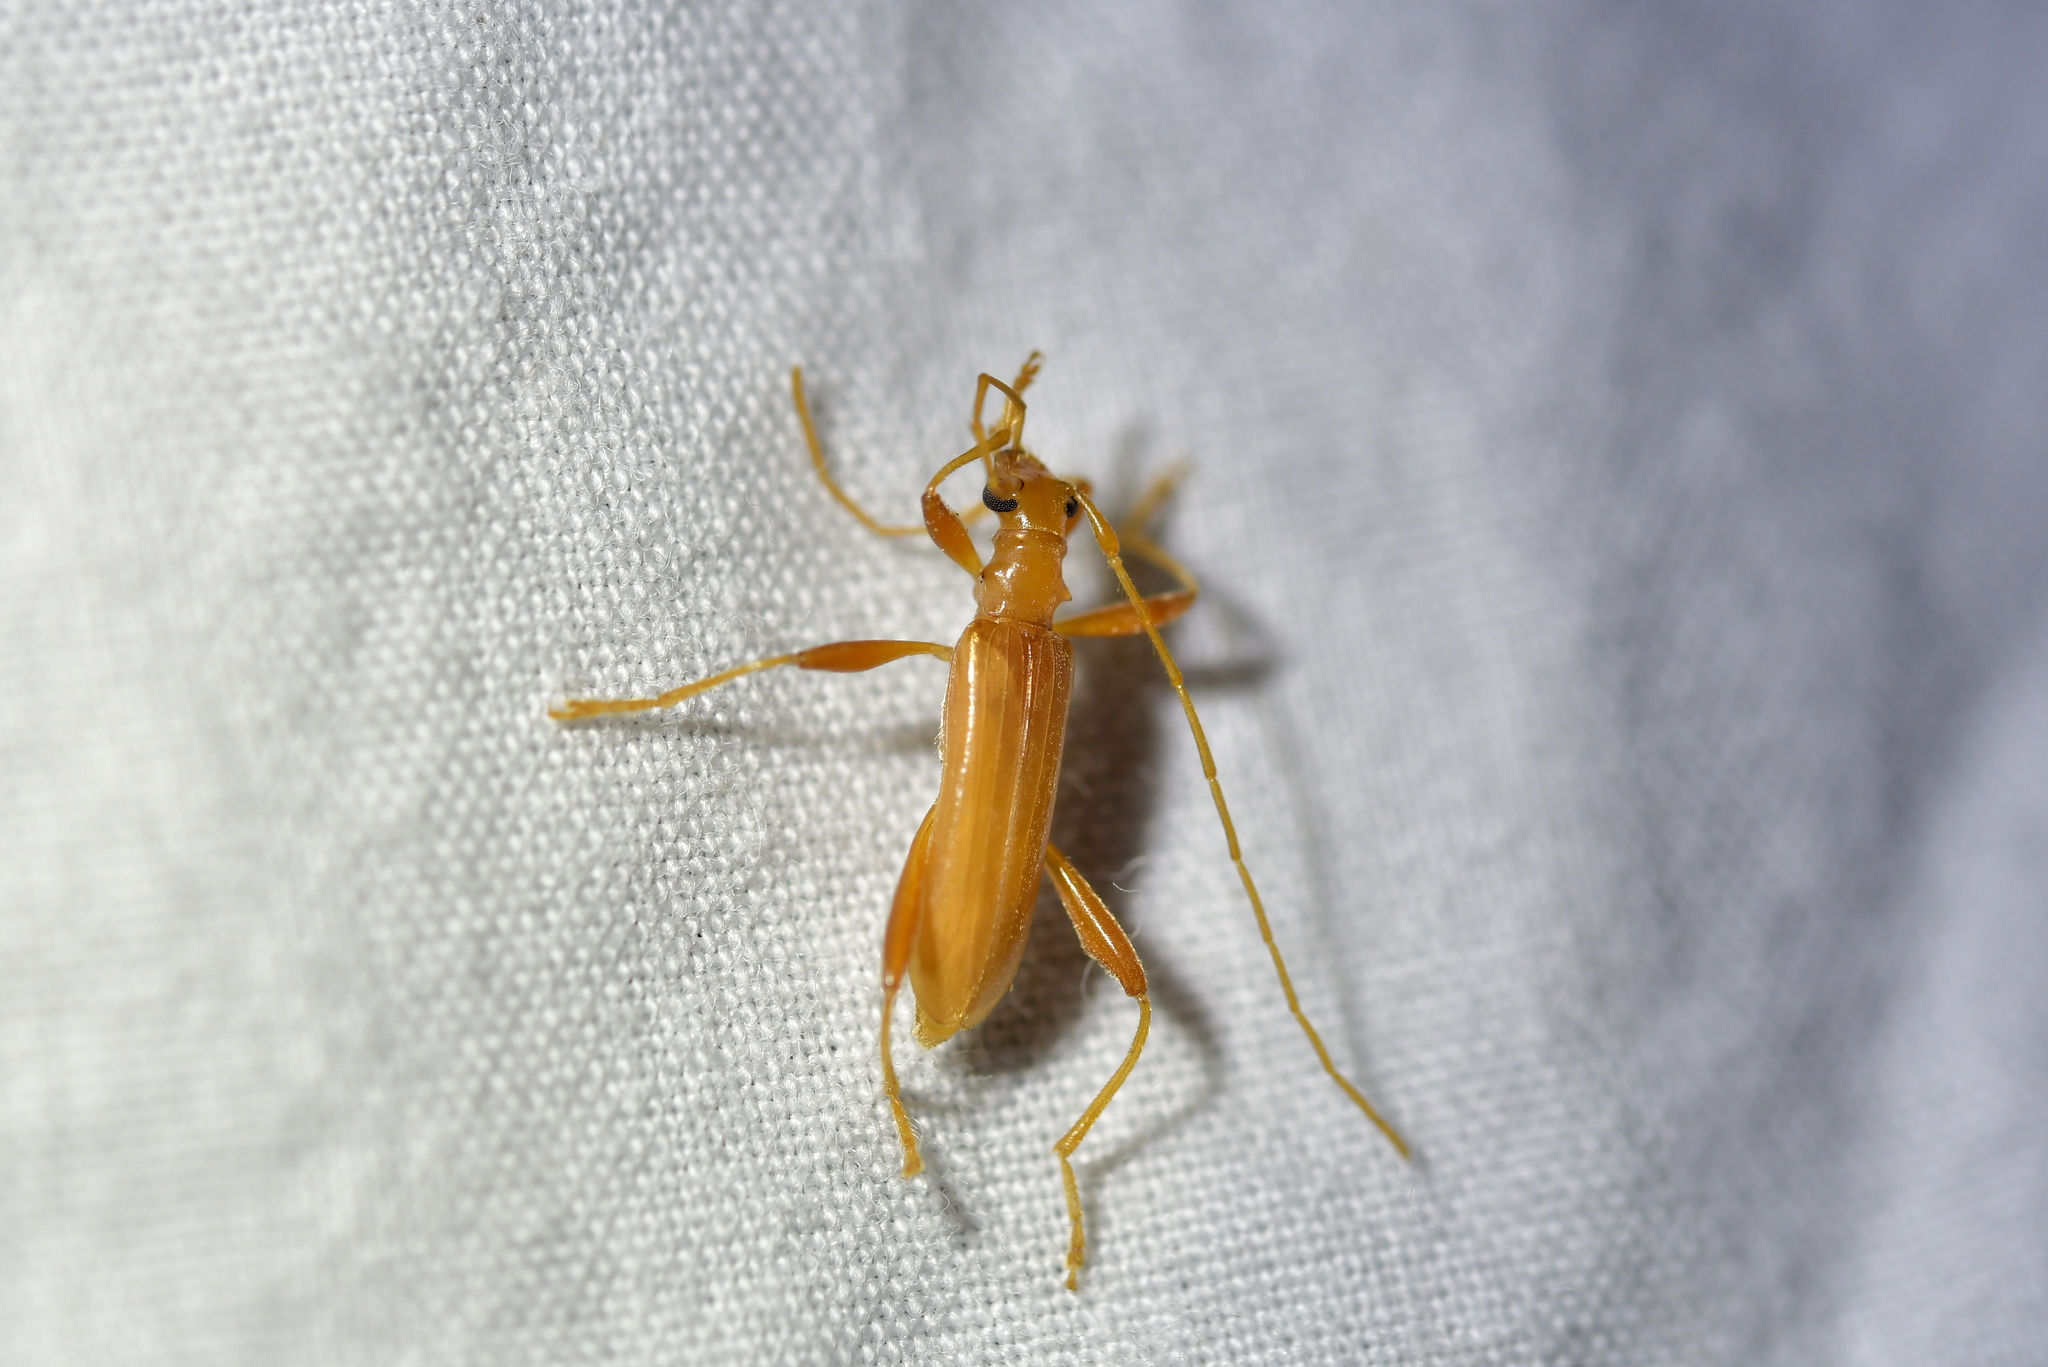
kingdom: Animalia
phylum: Arthropoda
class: Insecta
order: Coleoptera
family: Cerambycidae
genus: Votum
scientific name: Votum munda
